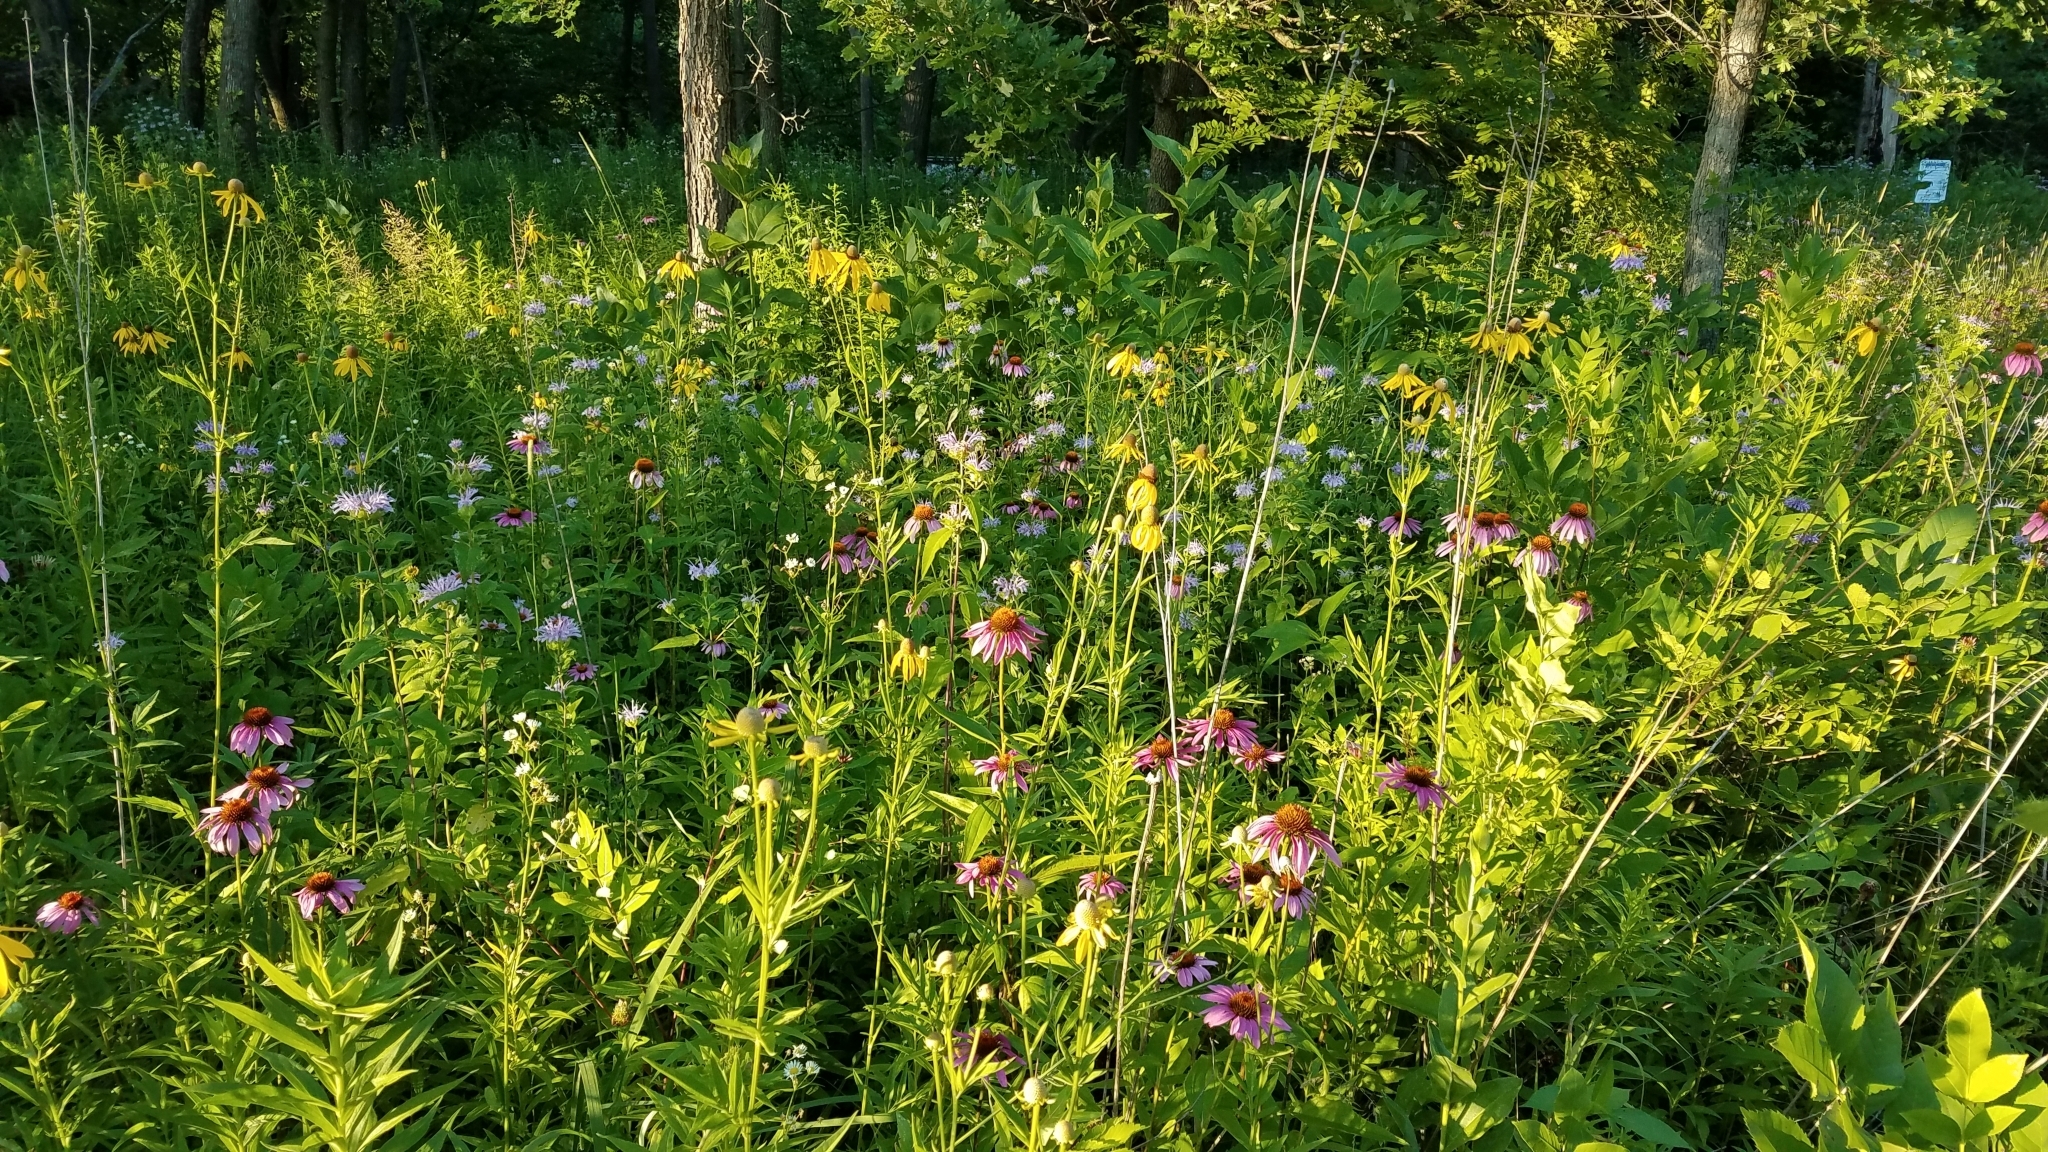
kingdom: Plantae
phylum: Tracheophyta
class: Magnoliopsida
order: Asterales
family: Asteraceae
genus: Echinacea
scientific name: Echinacea purpurea
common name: Broad-leaved purple coneflower
